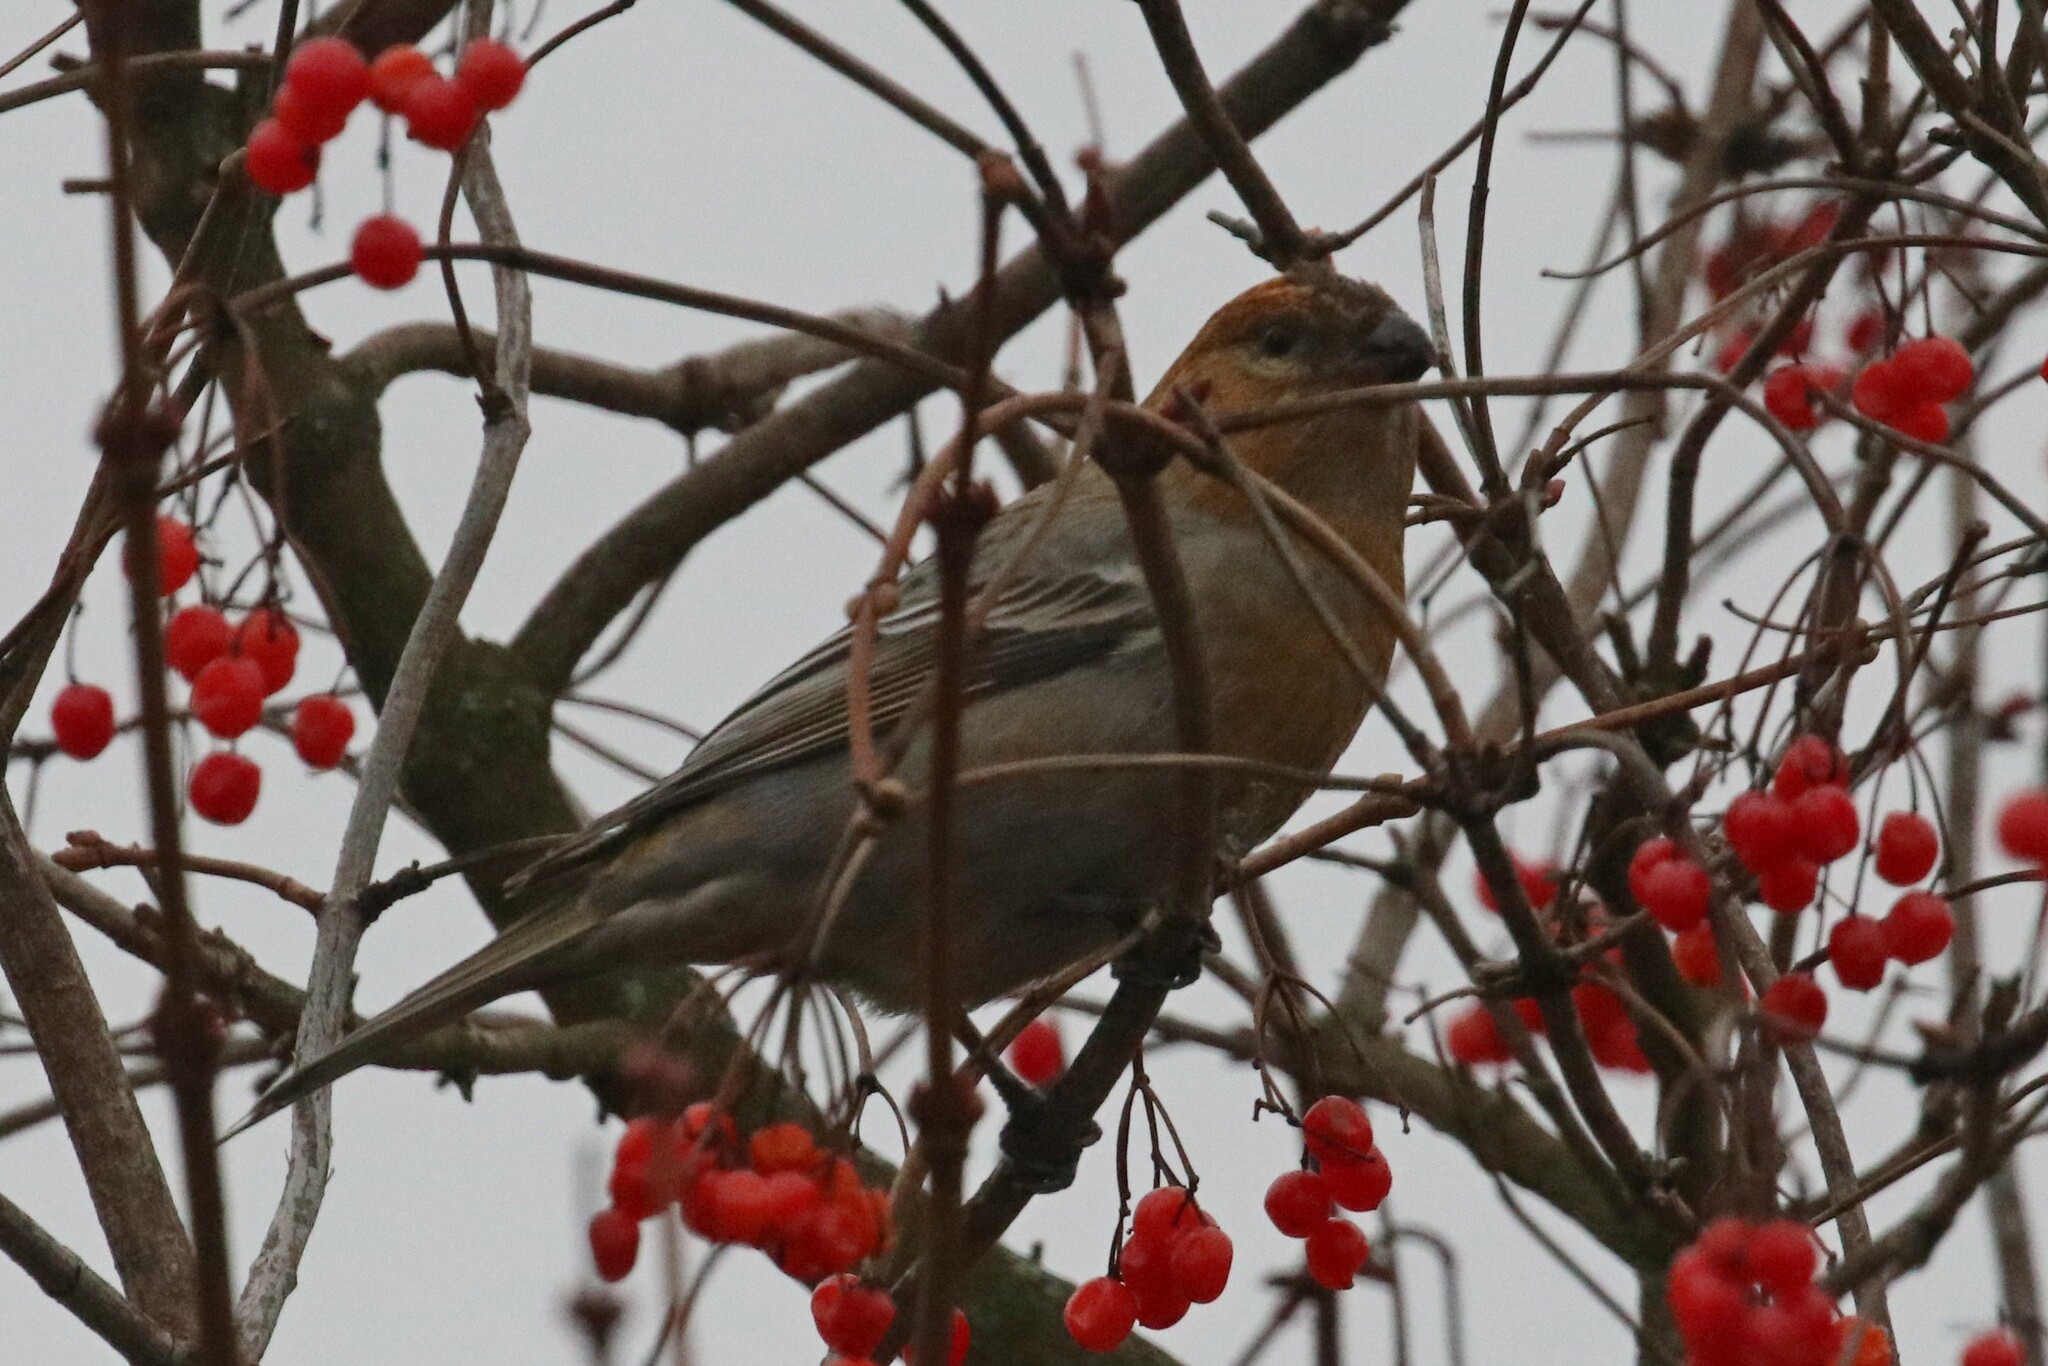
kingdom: Animalia
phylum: Chordata
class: Aves
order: Passeriformes
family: Fringillidae
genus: Pinicola
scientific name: Pinicola enucleator
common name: Pine grosbeak
